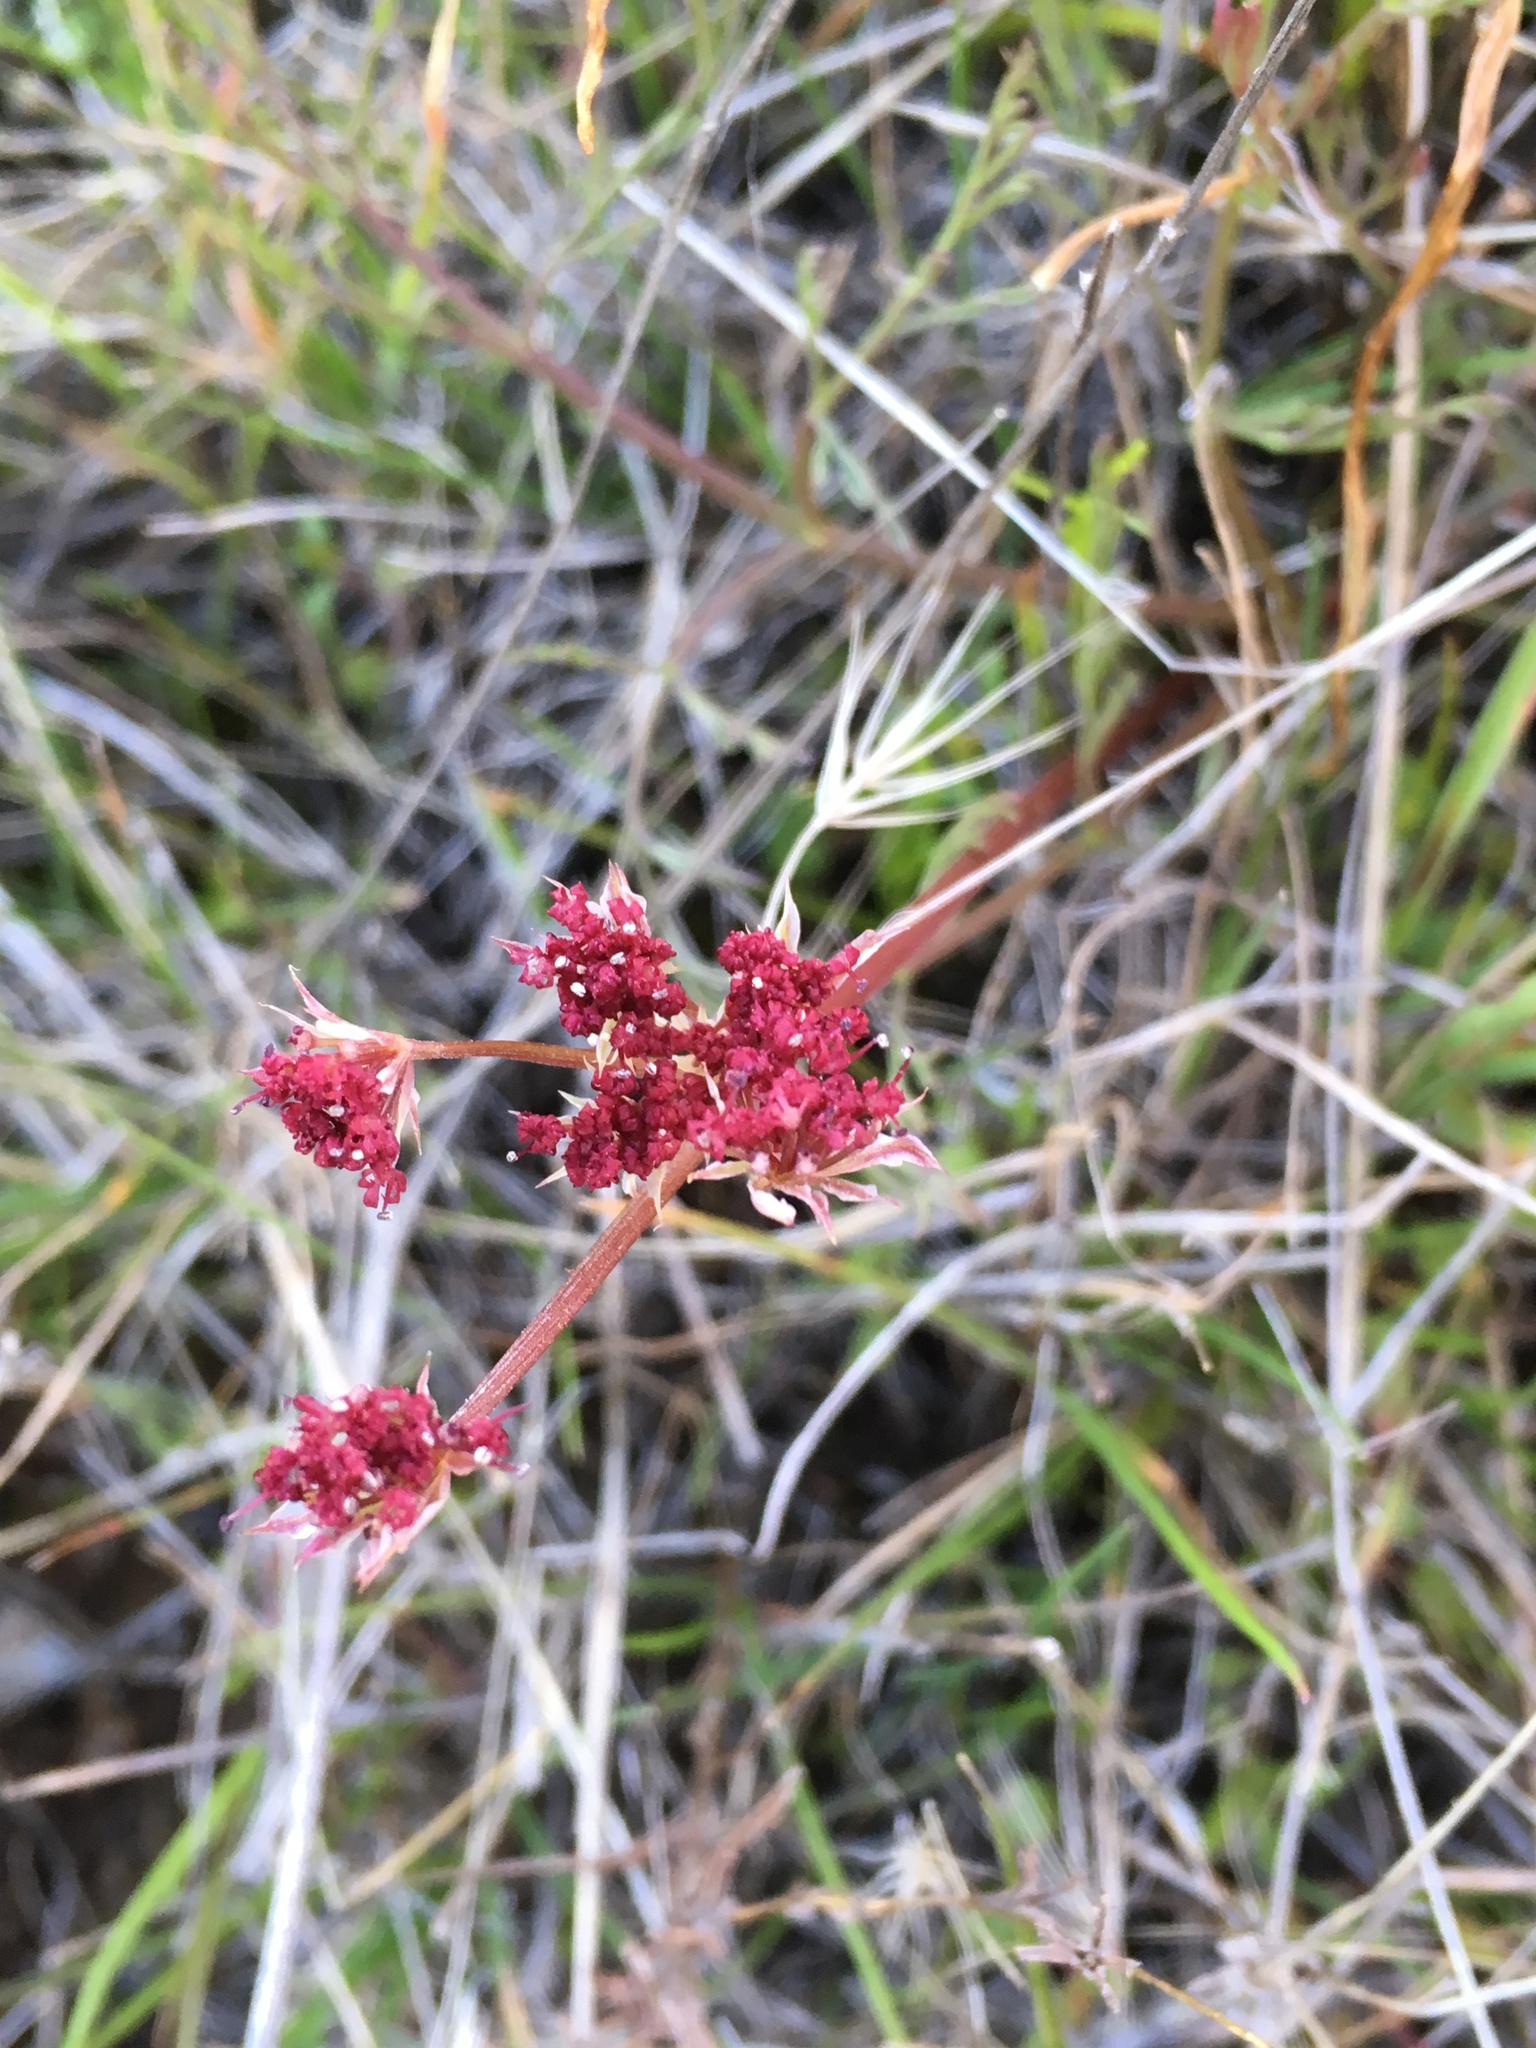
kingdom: Plantae
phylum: Tracheophyta
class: Magnoliopsida
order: Apiales
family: Apiaceae
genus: Lomatium
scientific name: Lomatium hooveri
